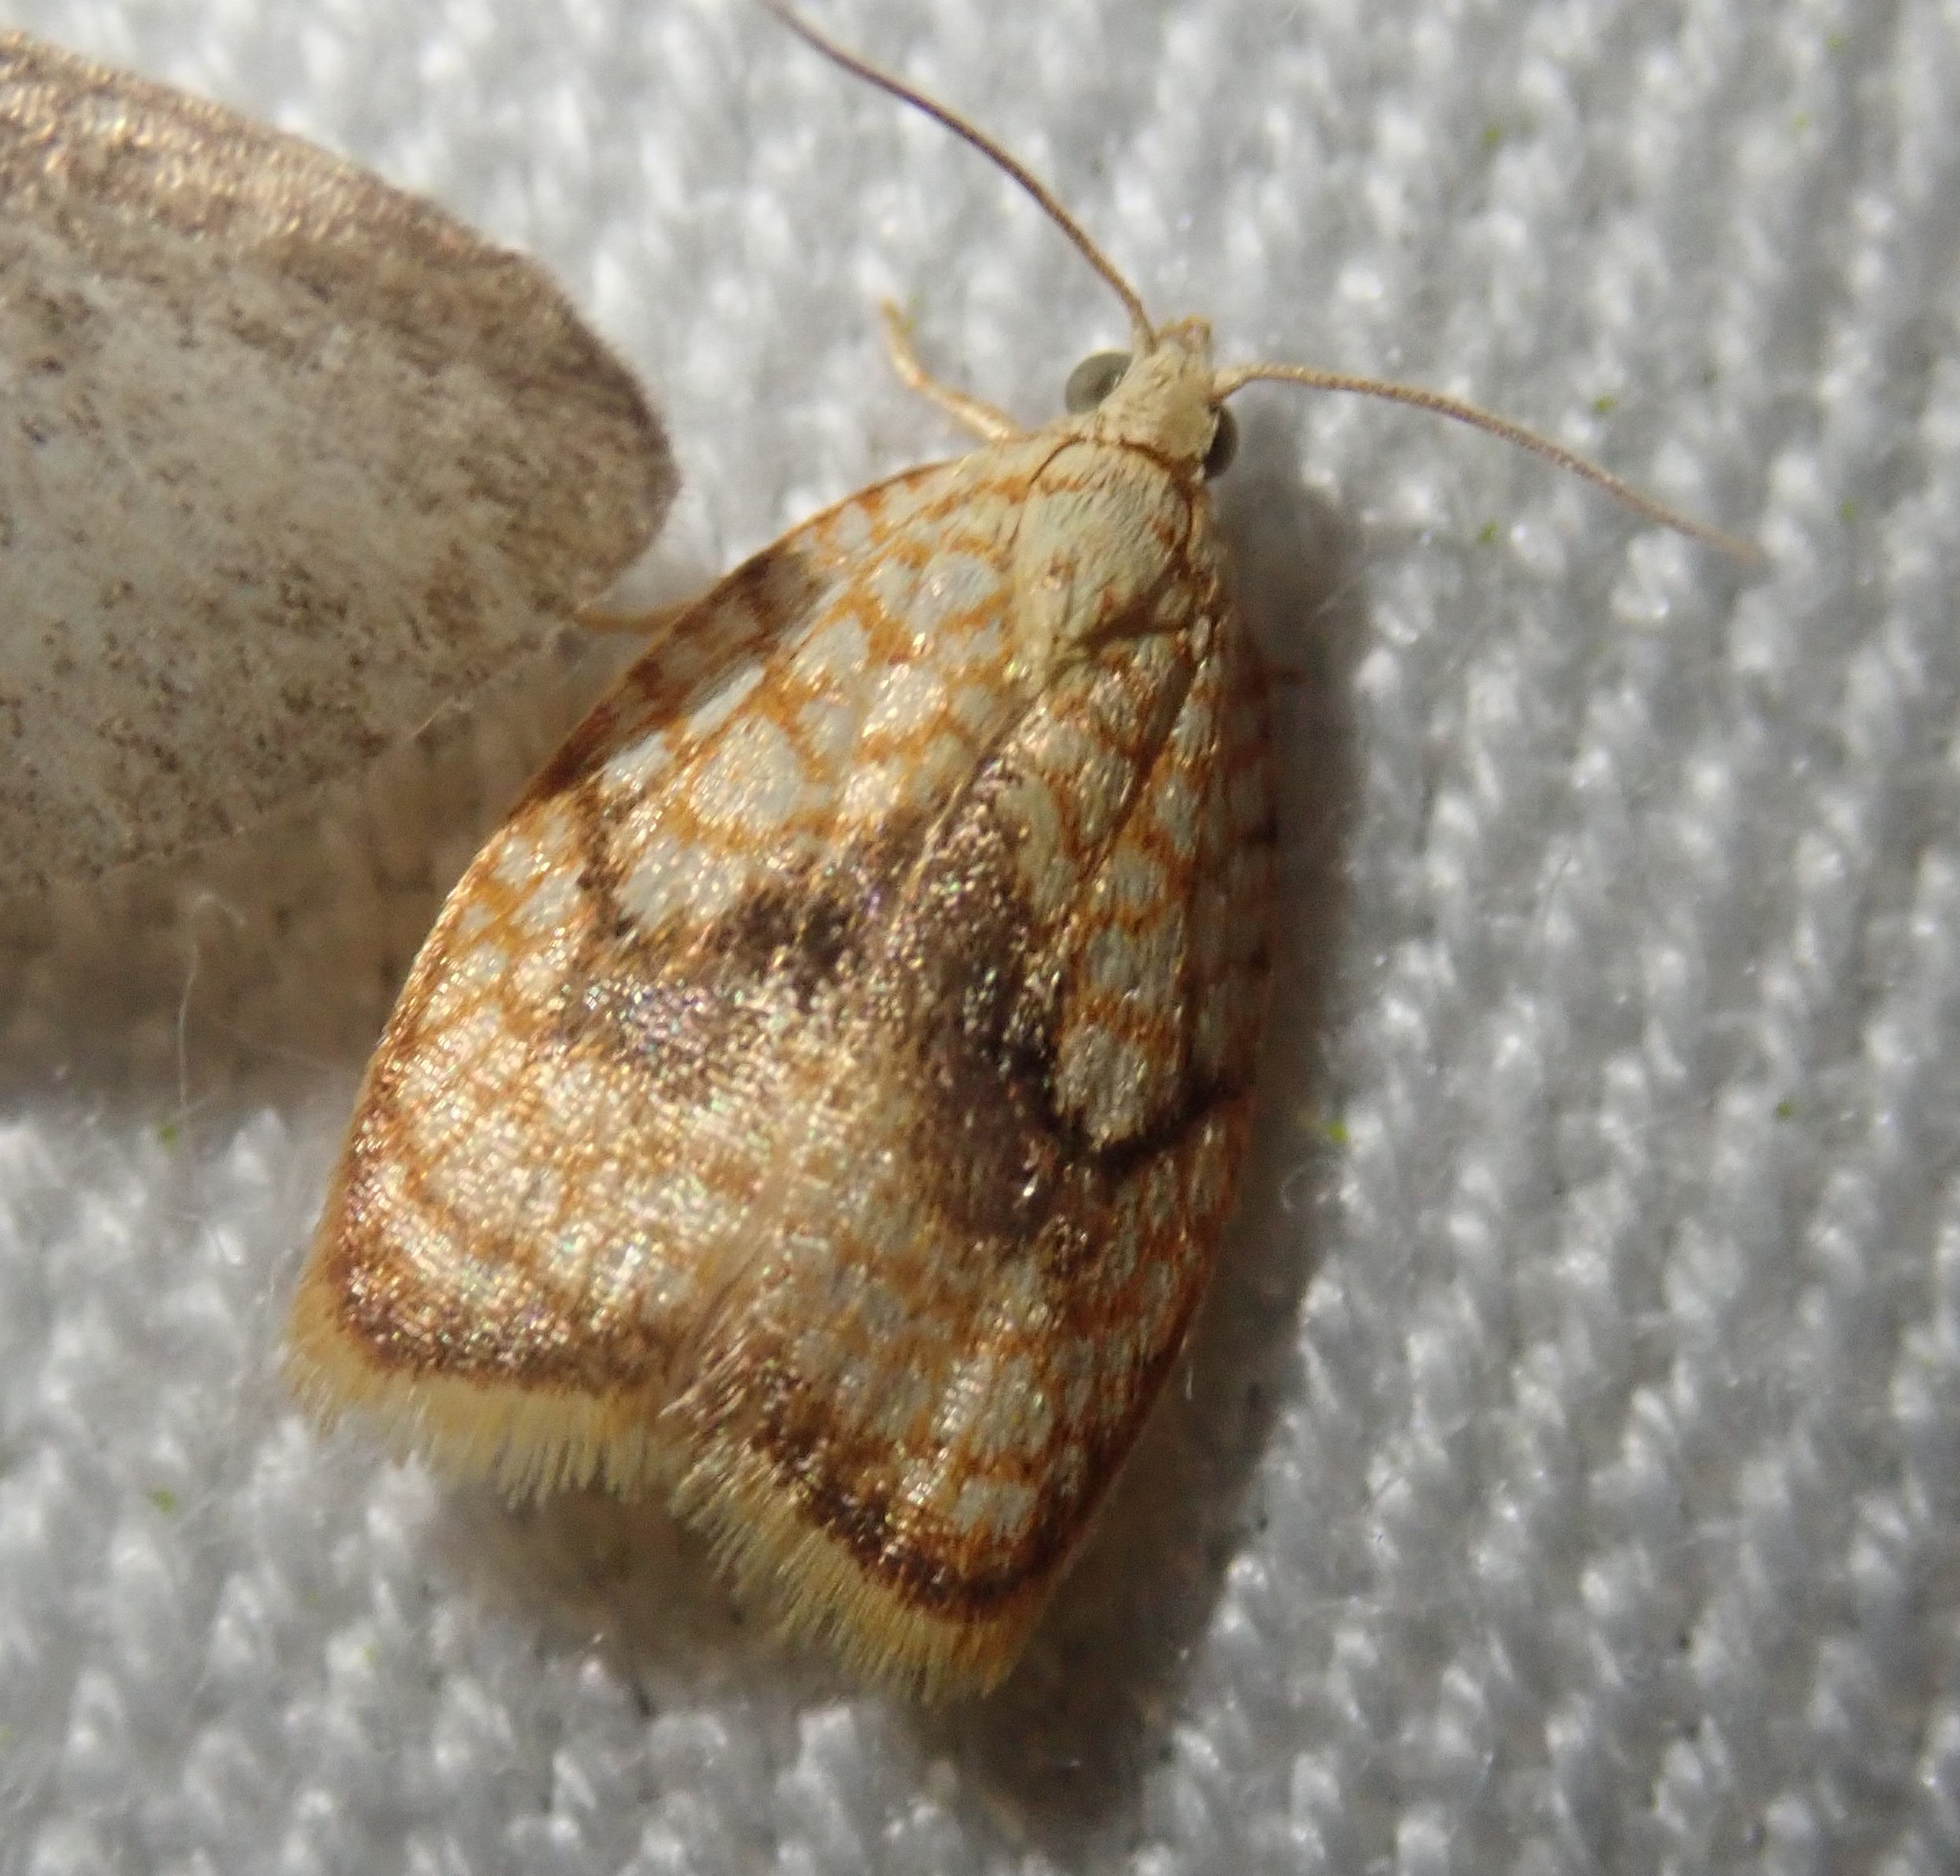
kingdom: Animalia
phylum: Arthropoda
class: Insecta
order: Lepidoptera
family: Tortricidae
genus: Acleris
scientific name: Acleris forsskaleana
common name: Maple button
